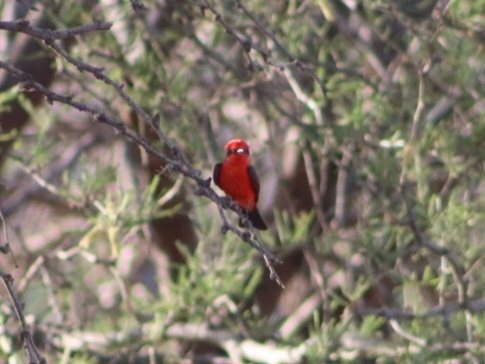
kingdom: Animalia
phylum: Chordata
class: Aves
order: Passeriformes
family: Tyrannidae
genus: Pyrocephalus
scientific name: Pyrocephalus rubinus
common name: Vermilion flycatcher
